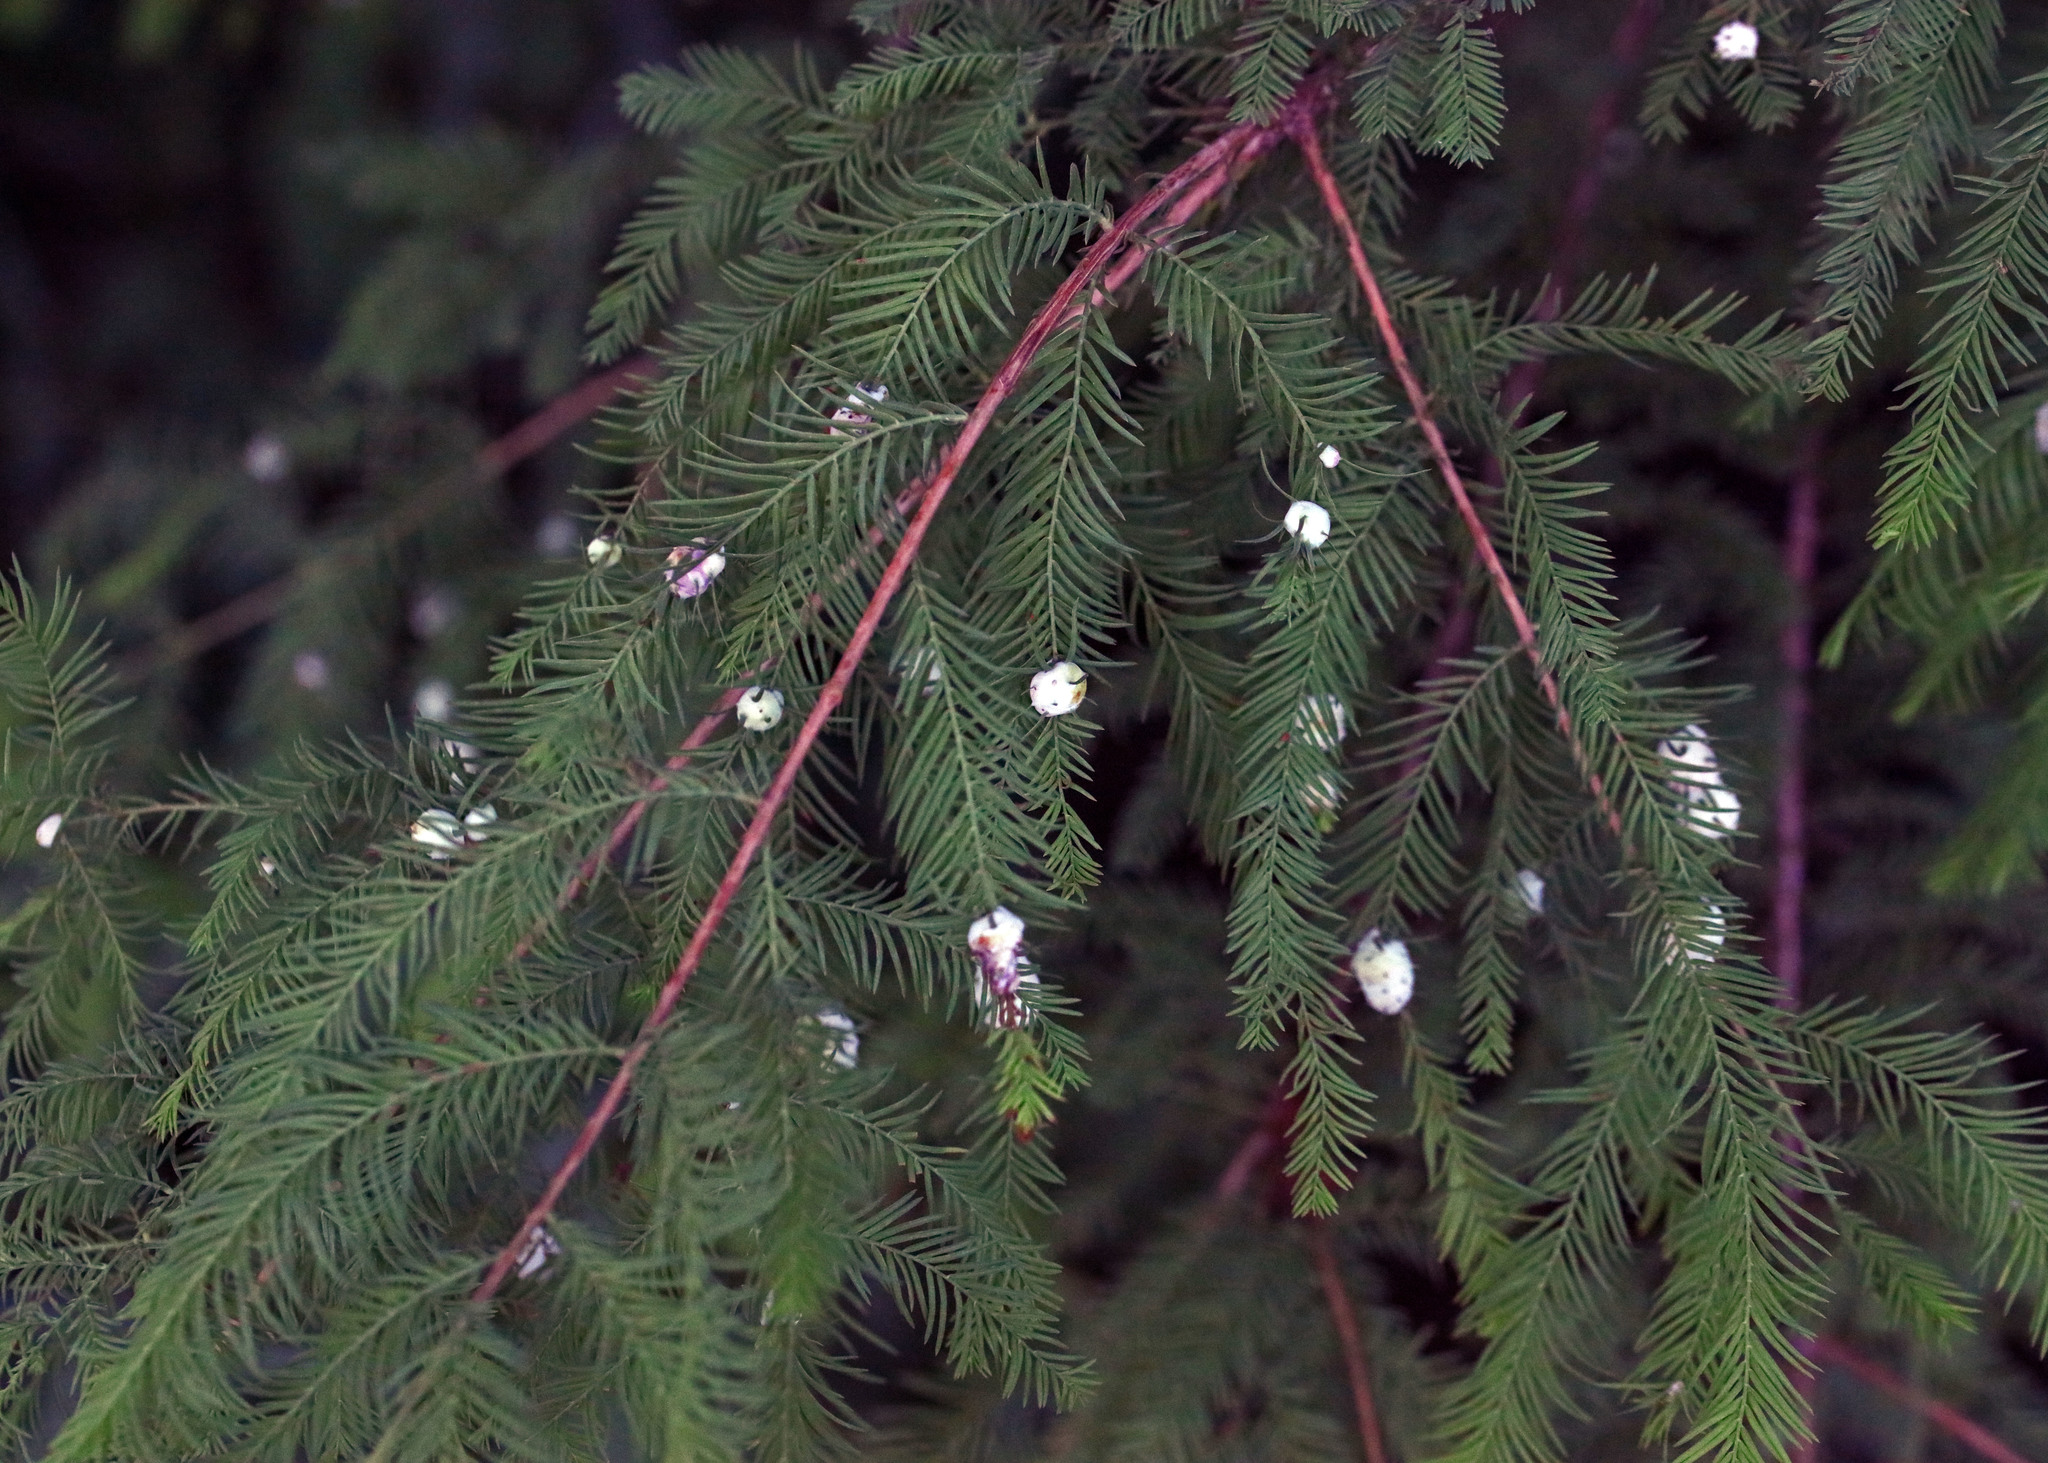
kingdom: Animalia
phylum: Arthropoda
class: Insecta
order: Diptera
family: Cecidomyiidae
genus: Taxodiomyia
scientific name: Taxodiomyia cupressiananassa
